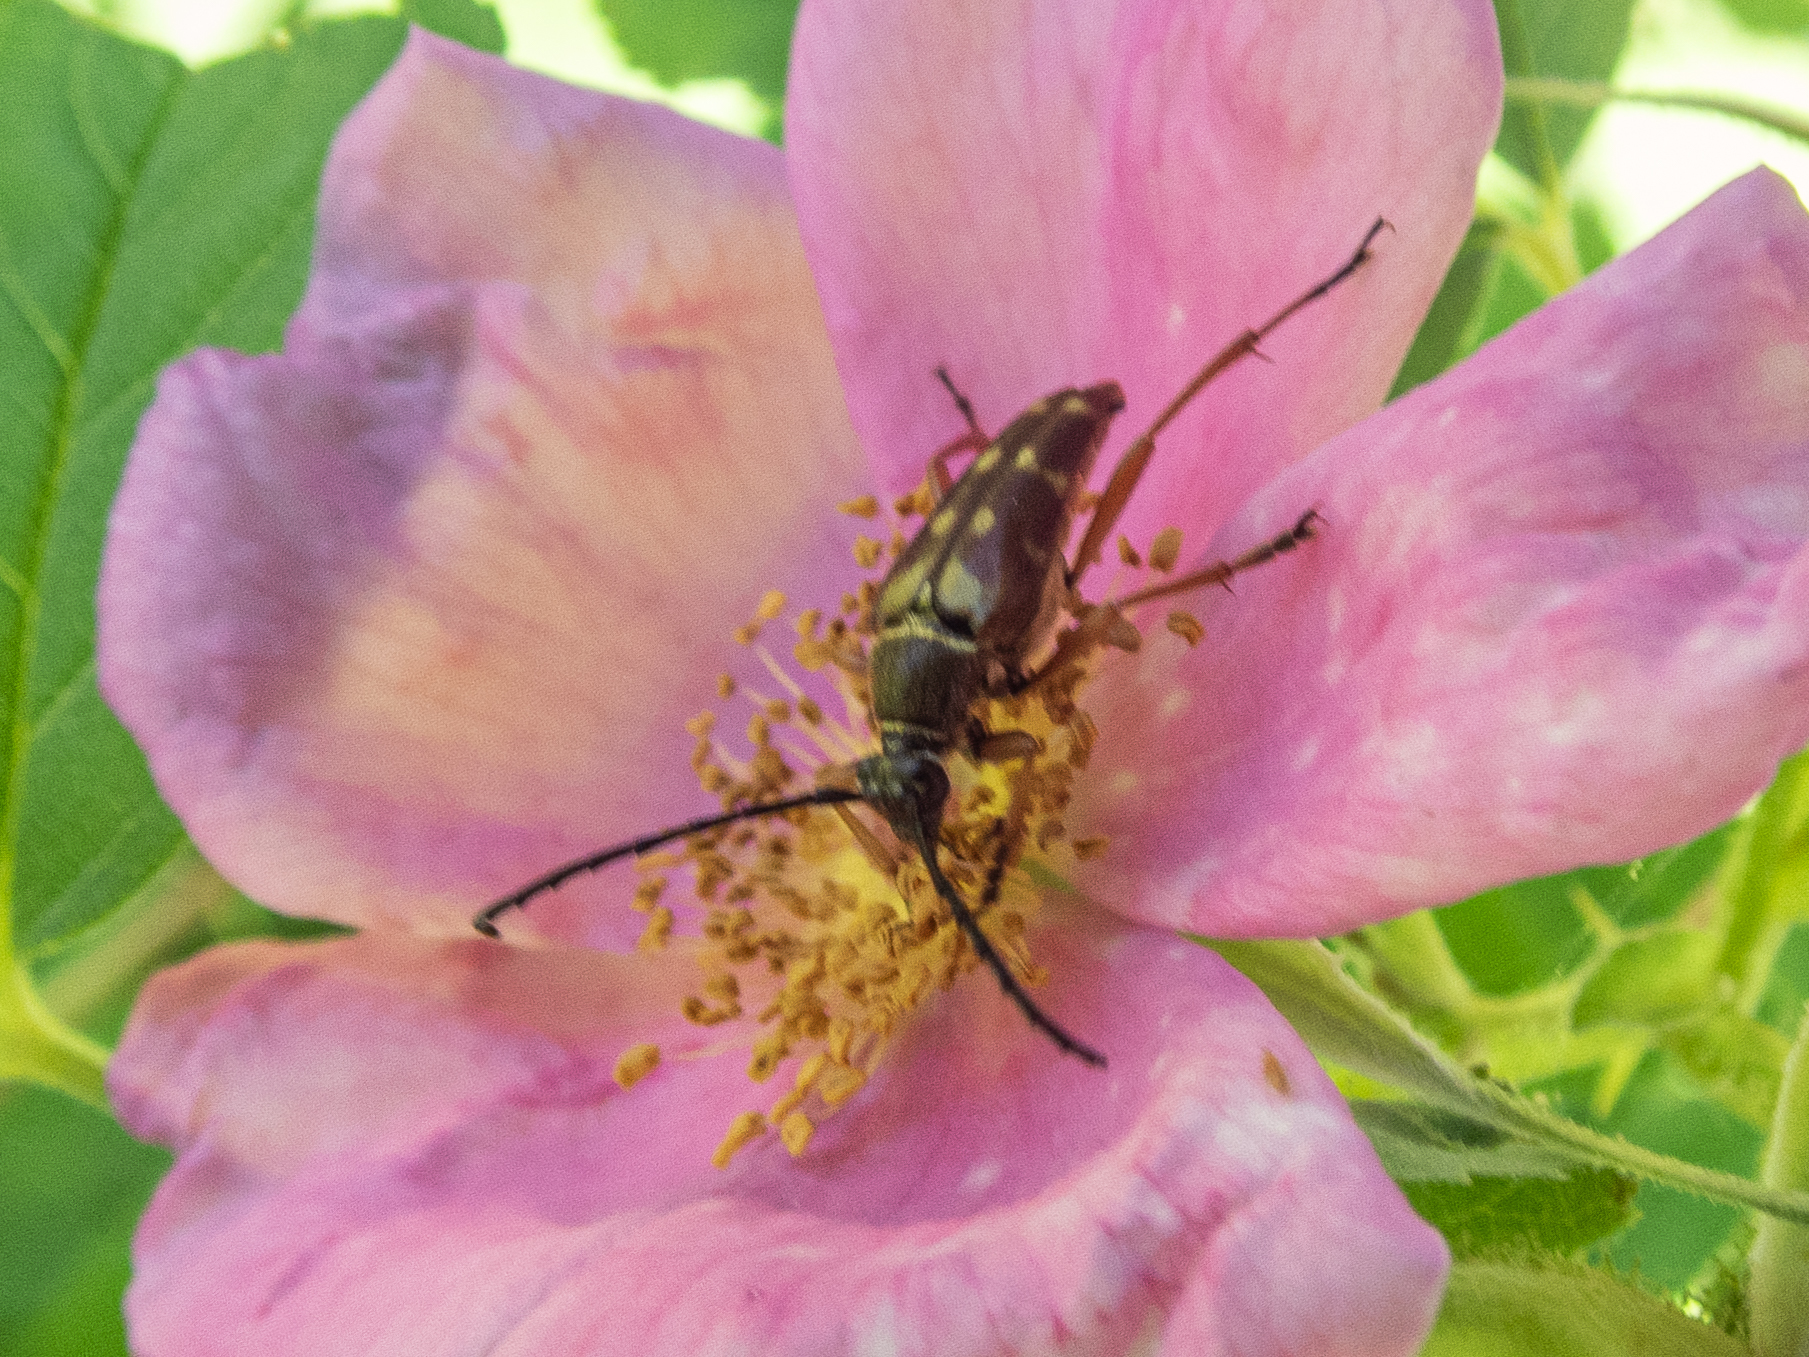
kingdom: Animalia
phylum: Arthropoda
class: Insecta
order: Coleoptera
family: Cerambycidae
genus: Typocerus
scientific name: Typocerus velutinus
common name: Banded longhorn beetle
